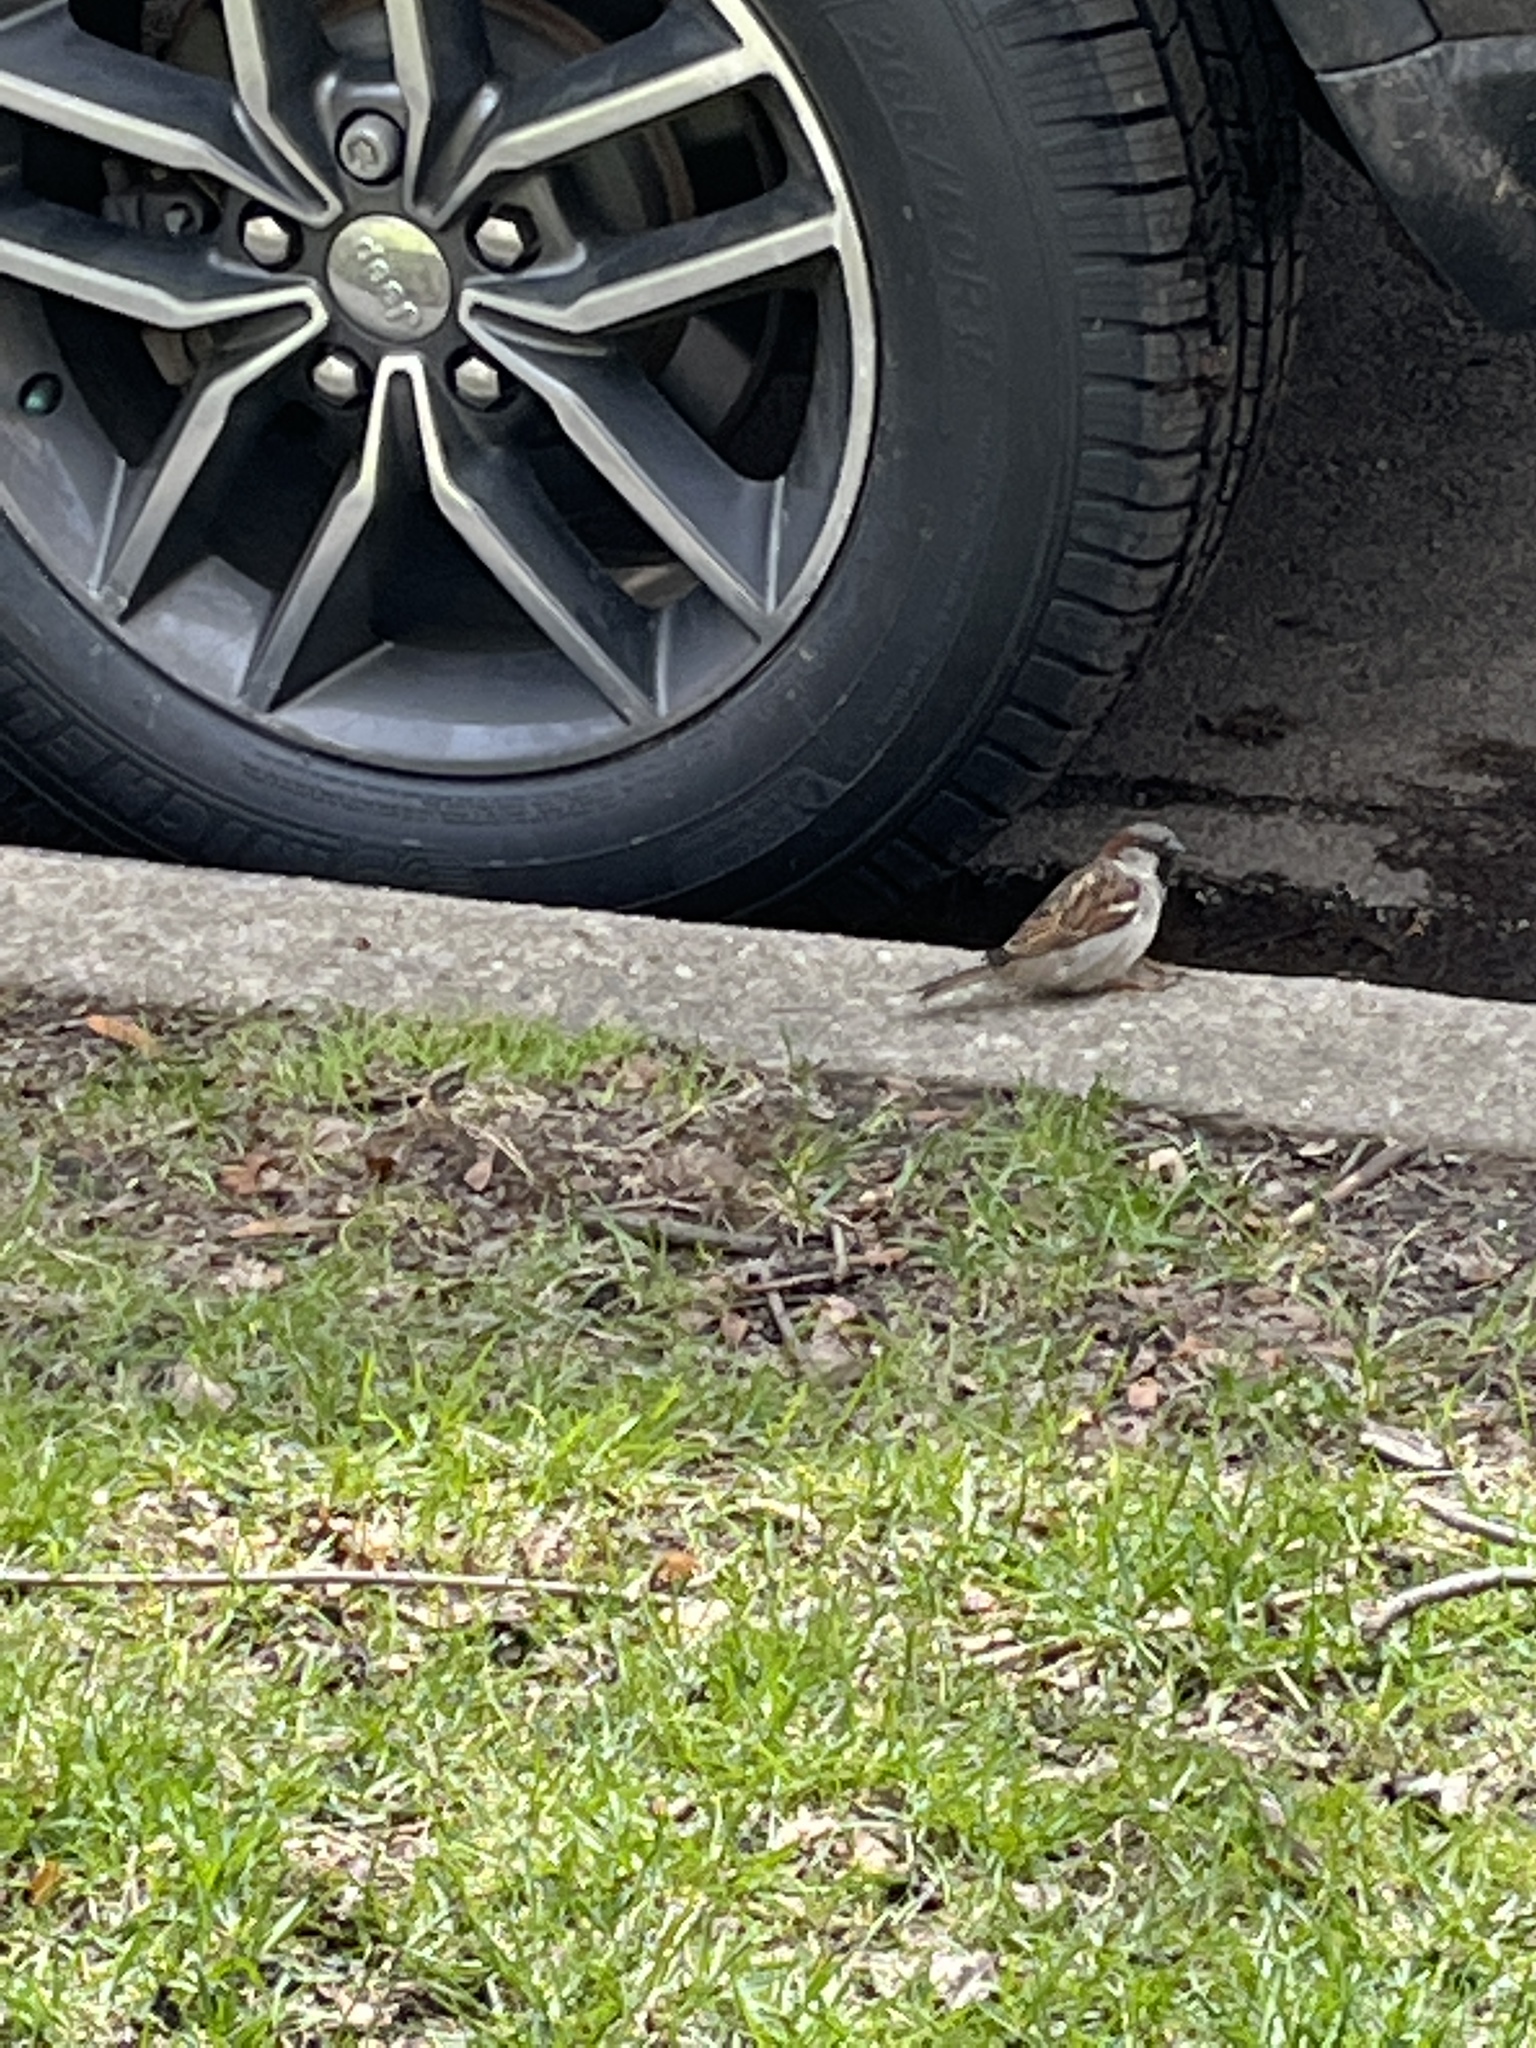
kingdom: Animalia
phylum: Chordata
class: Aves
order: Passeriformes
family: Passeridae
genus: Passer
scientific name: Passer domesticus
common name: House sparrow
